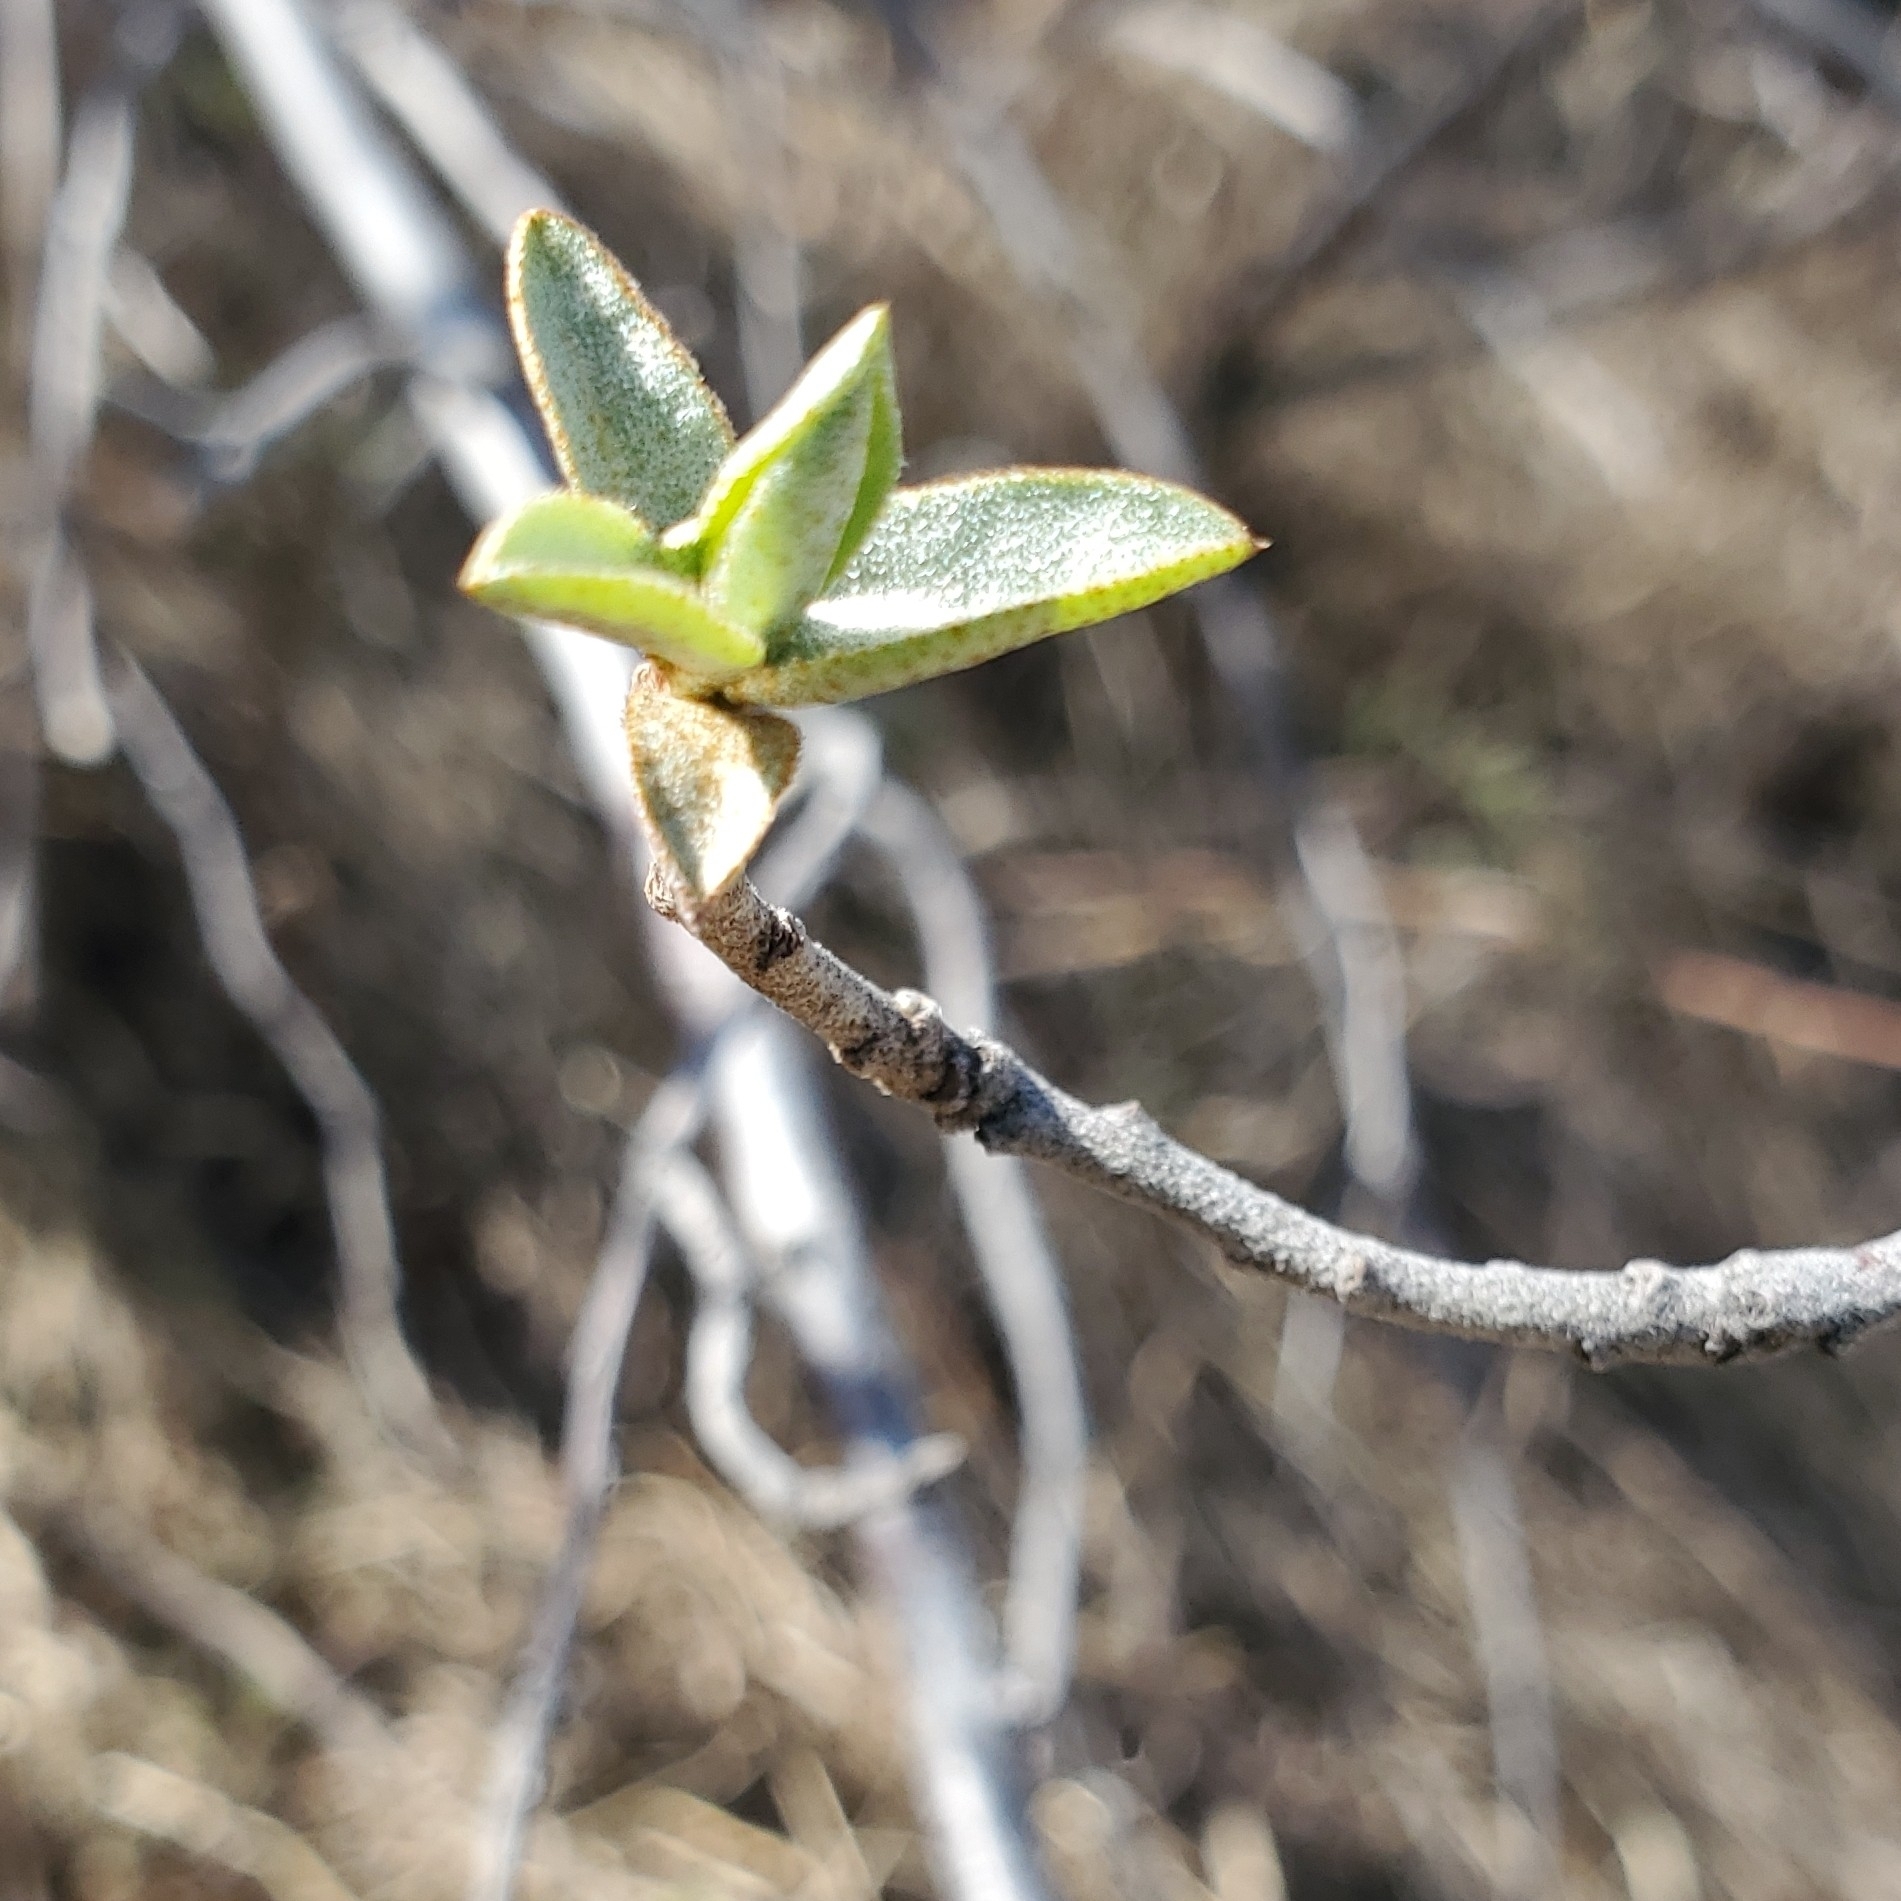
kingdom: Plantae
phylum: Tracheophyta
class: Magnoliopsida
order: Rosales
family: Elaeagnaceae
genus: Elaeagnus
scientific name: Elaeagnus commutata
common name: Silverberry
